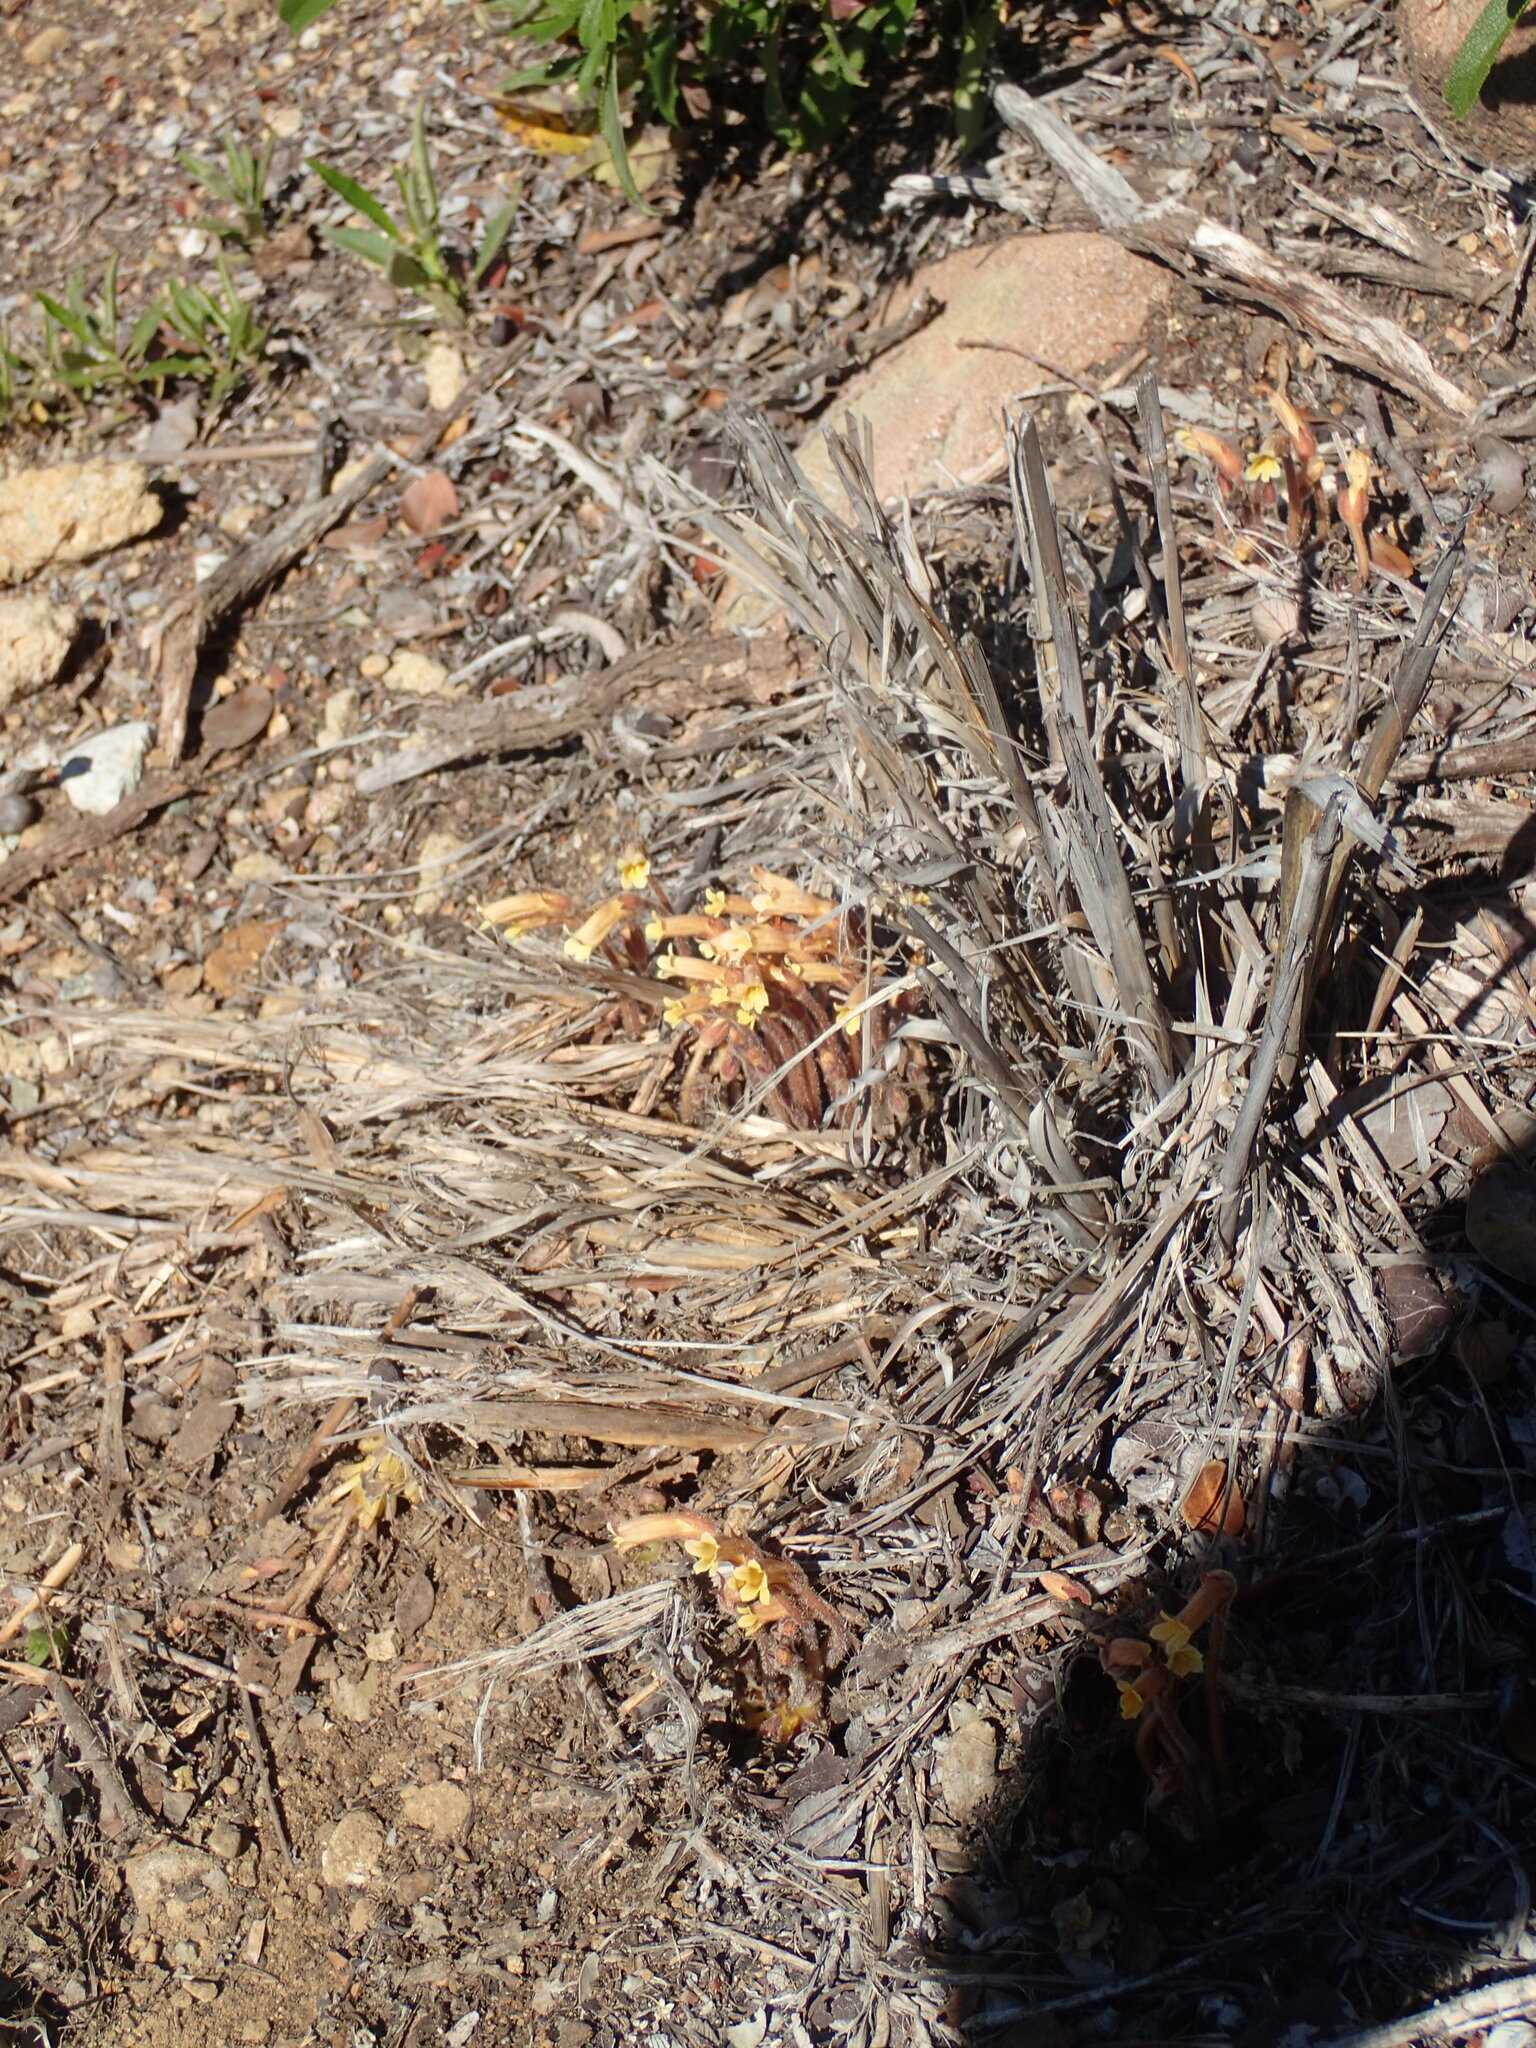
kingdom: Plantae
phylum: Tracheophyta
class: Magnoliopsida
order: Lamiales
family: Orobanchaceae
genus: Aphyllon
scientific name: Aphyllon franciscanum
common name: San francisco broomrape
